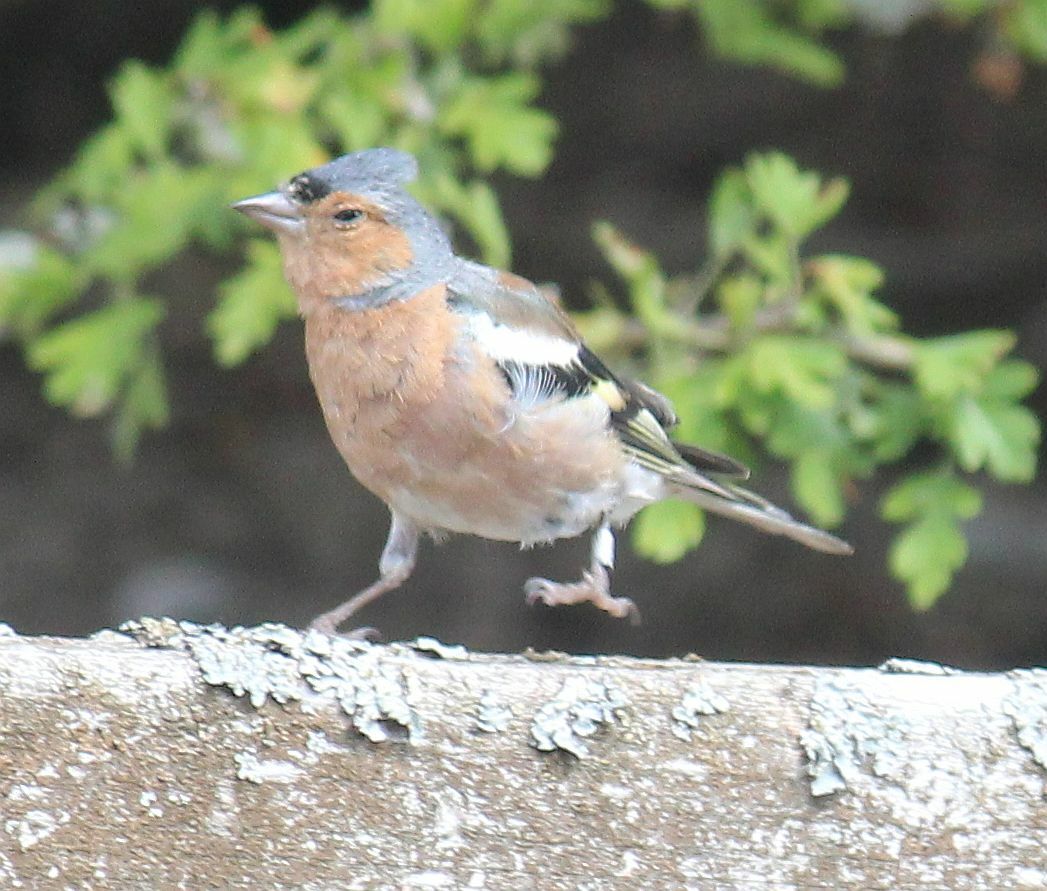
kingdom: Animalia
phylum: Chordata
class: Aves
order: Passeriformes
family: Fringillidae
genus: Fringilla
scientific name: Fringilla coelebs
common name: Common chaffinch
